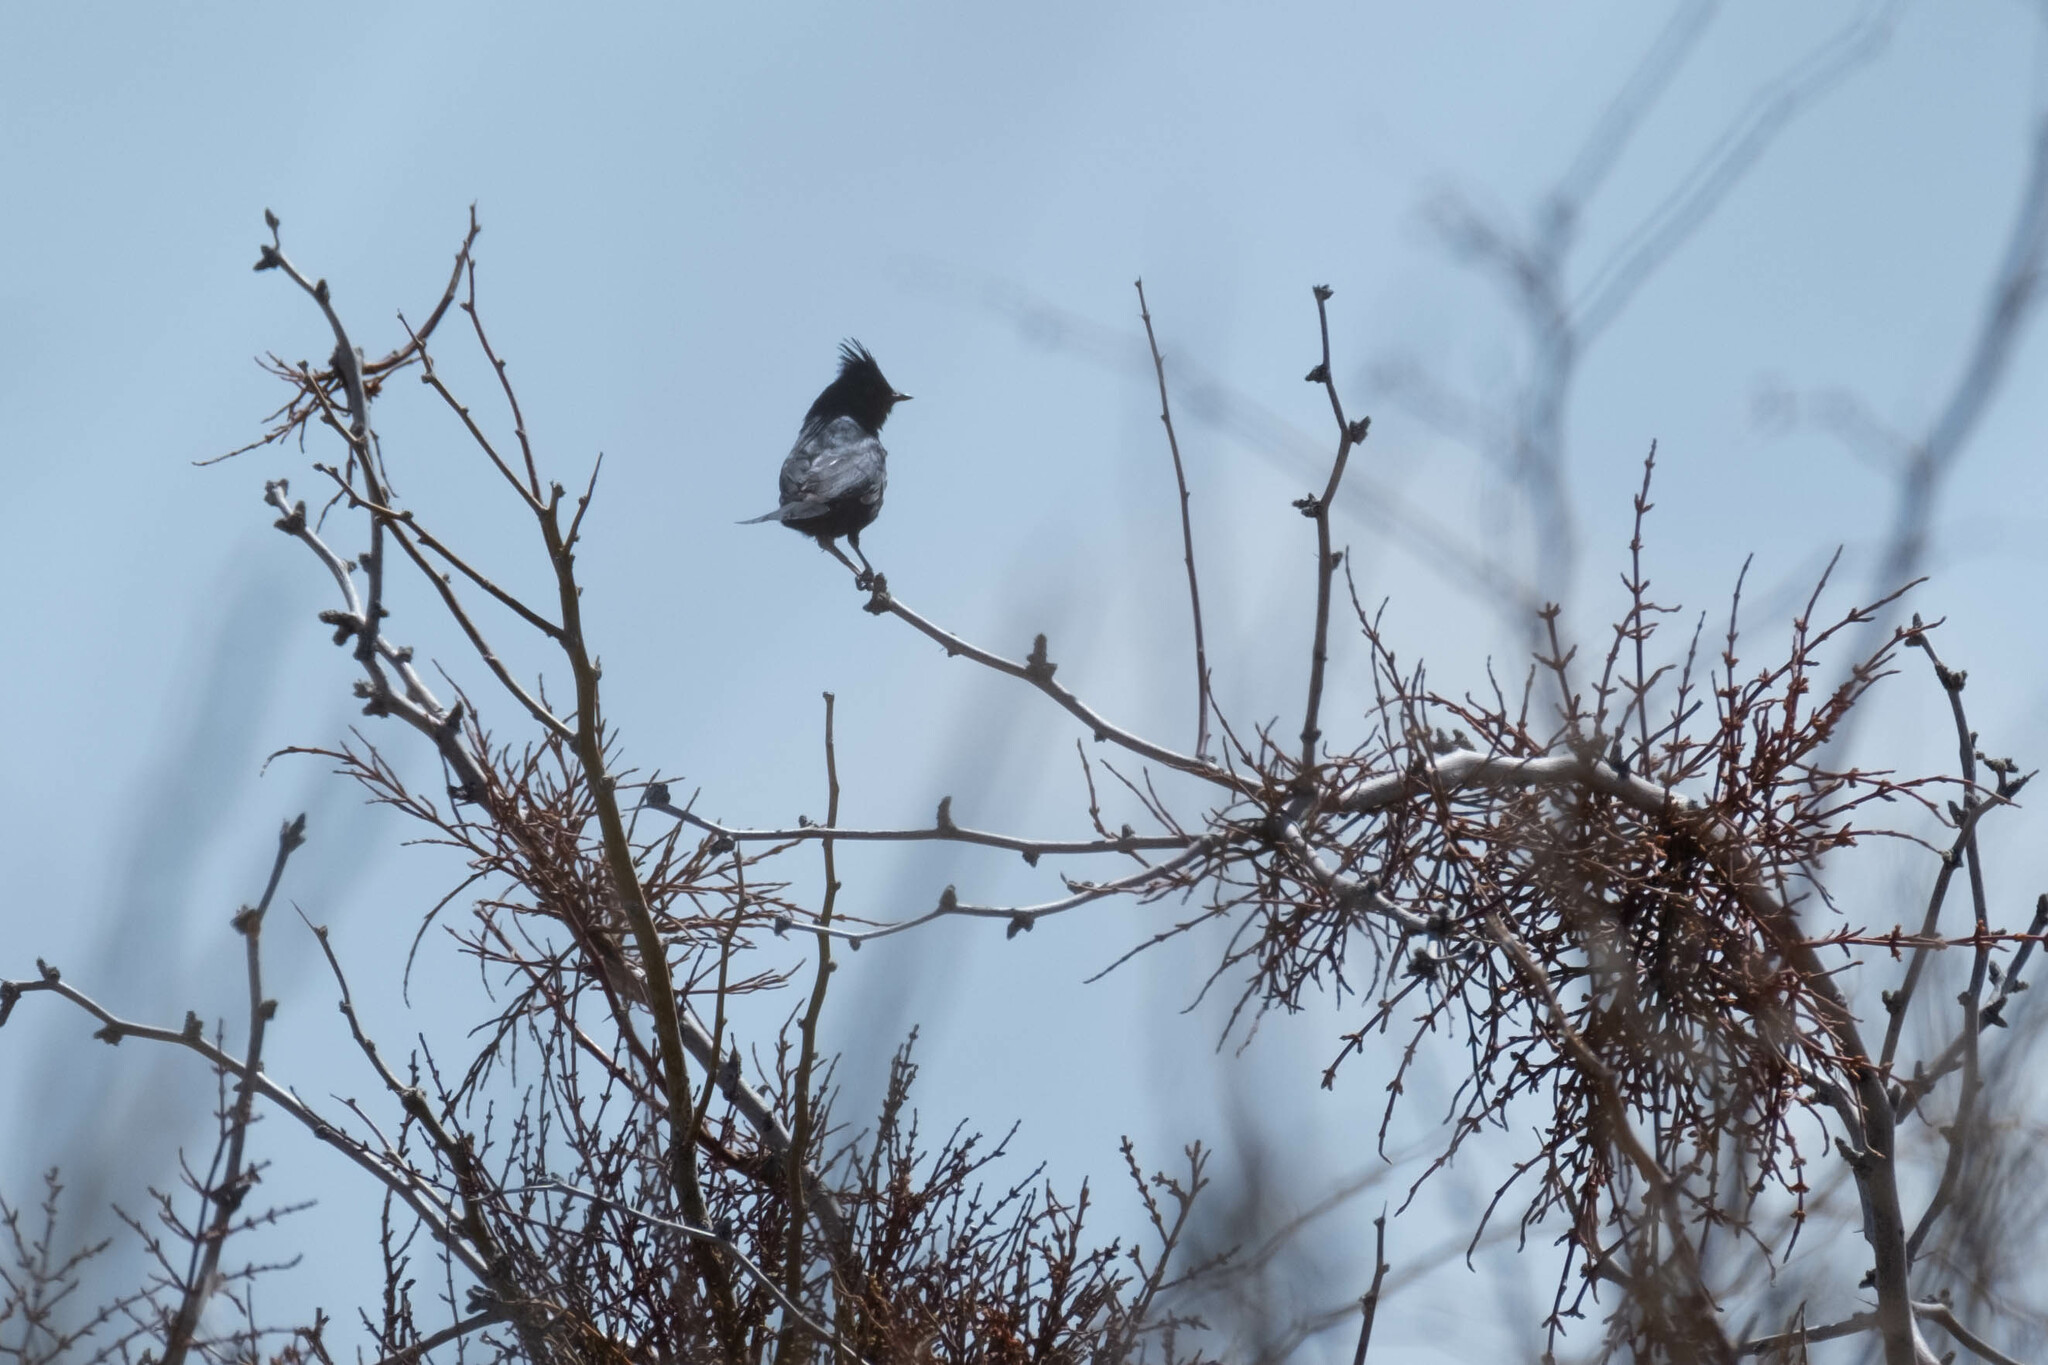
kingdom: Animalia
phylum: Chordata
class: Aves
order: Passeriformes
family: Ptilogonatidae
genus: Phainopepla
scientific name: Phainopepla nitens
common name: Phainopepla
